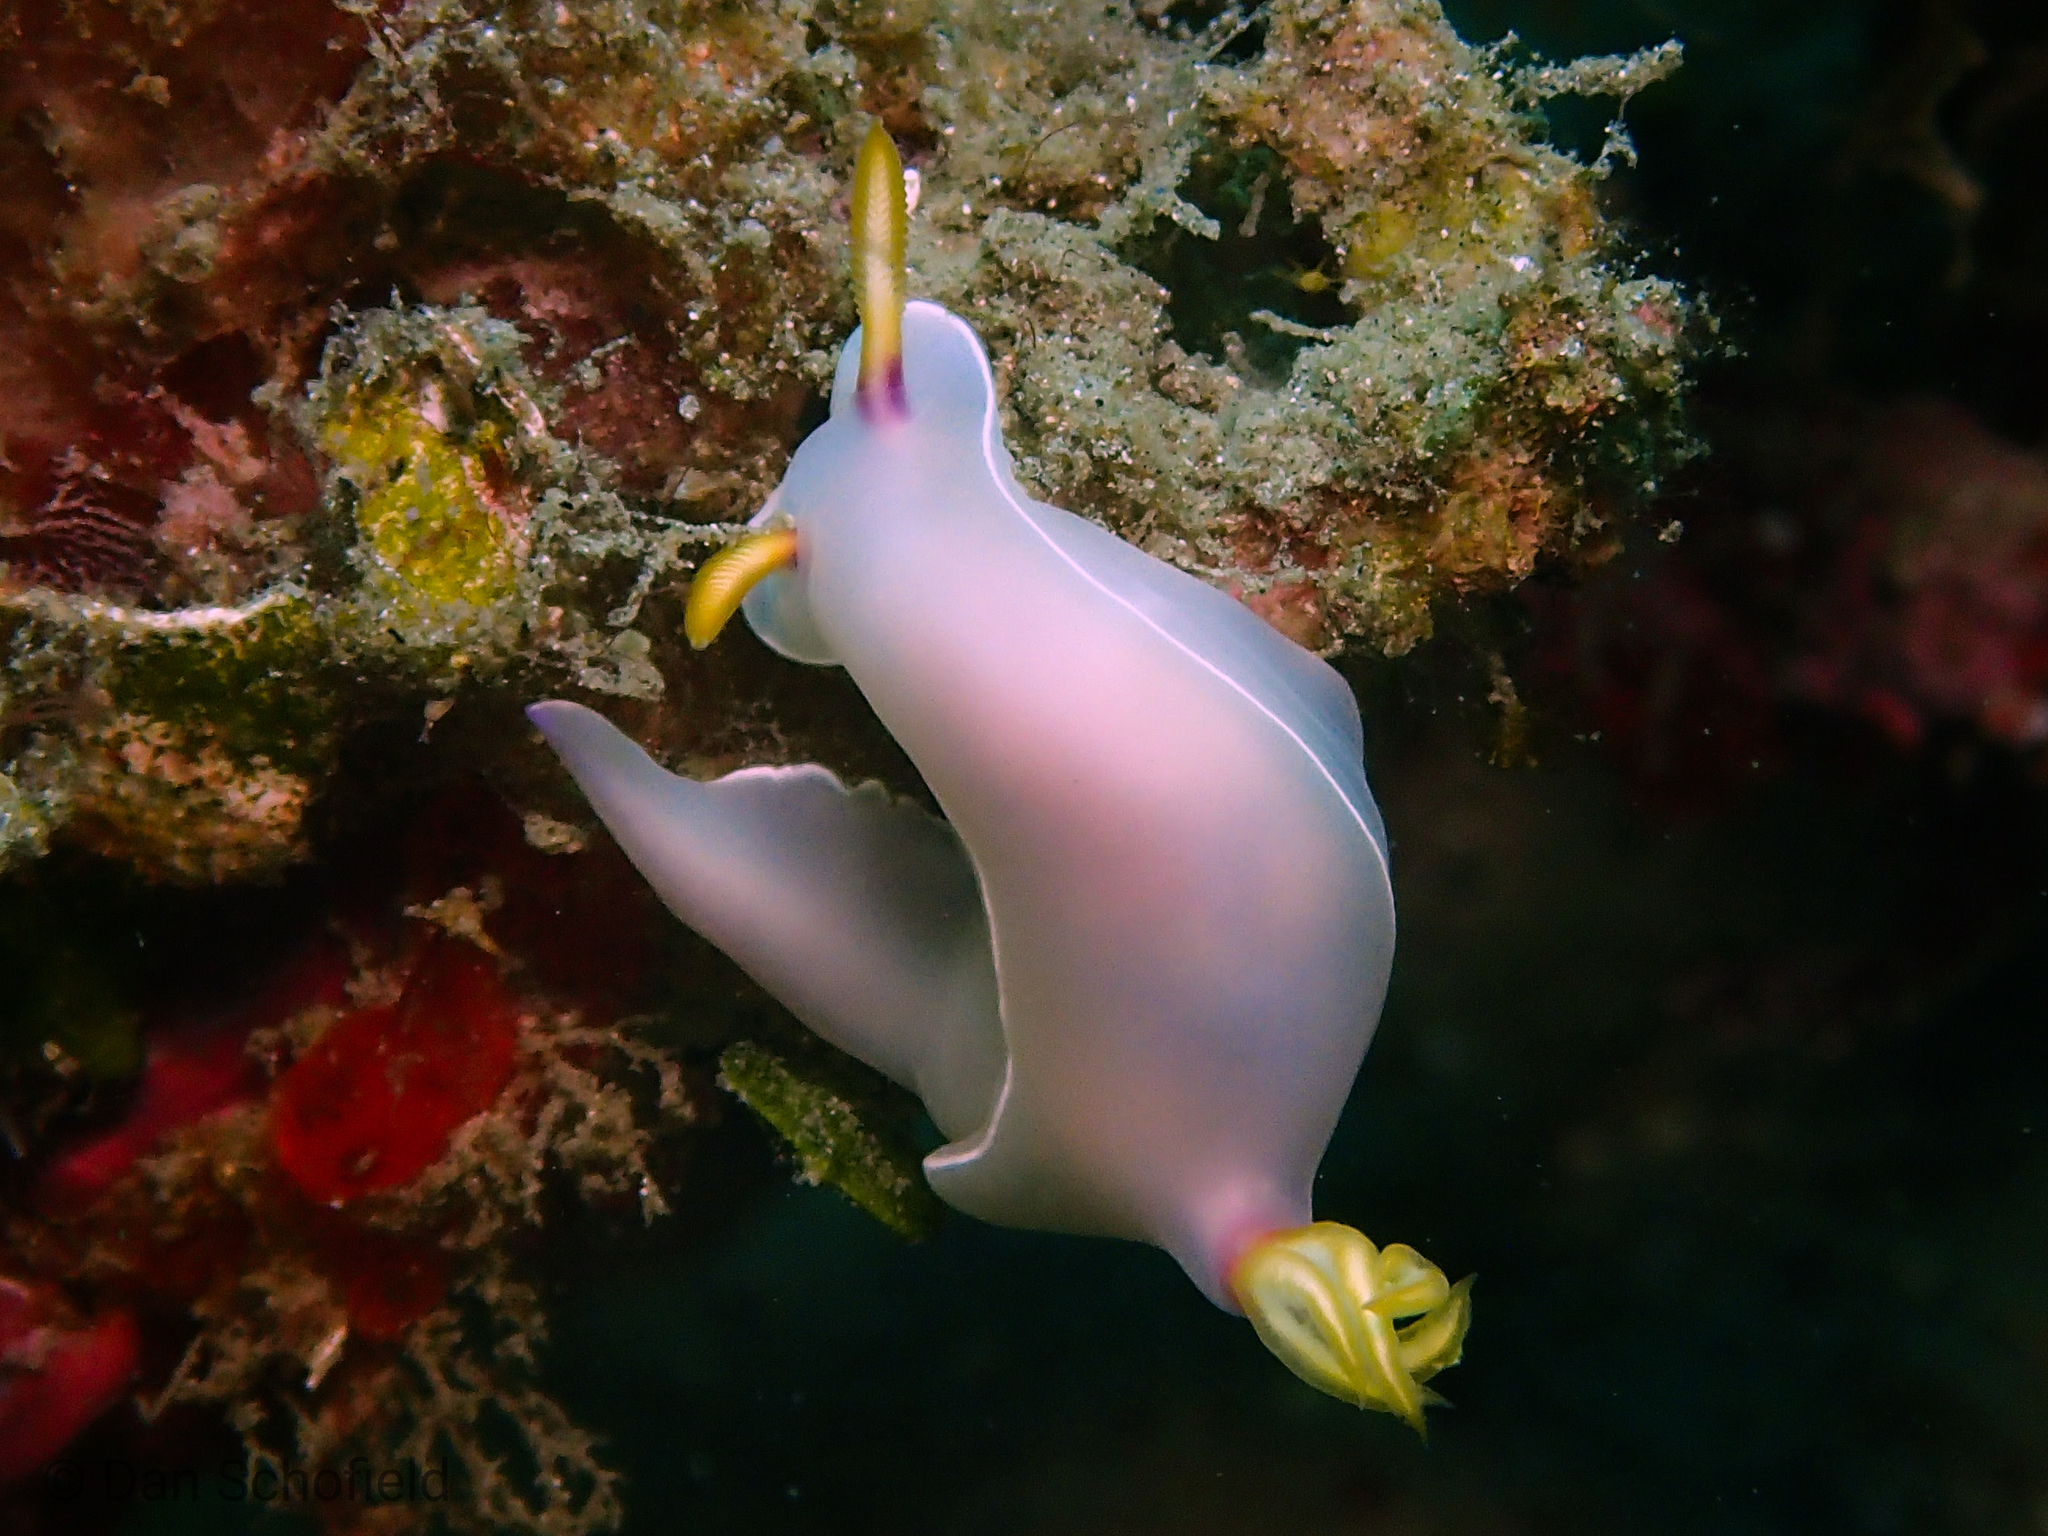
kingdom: Animalia
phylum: Mollusca
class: Gastropoda
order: Nudibranchia
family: Chromodorididae
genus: Hypselodoris
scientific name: Hypselodoris bullockii
